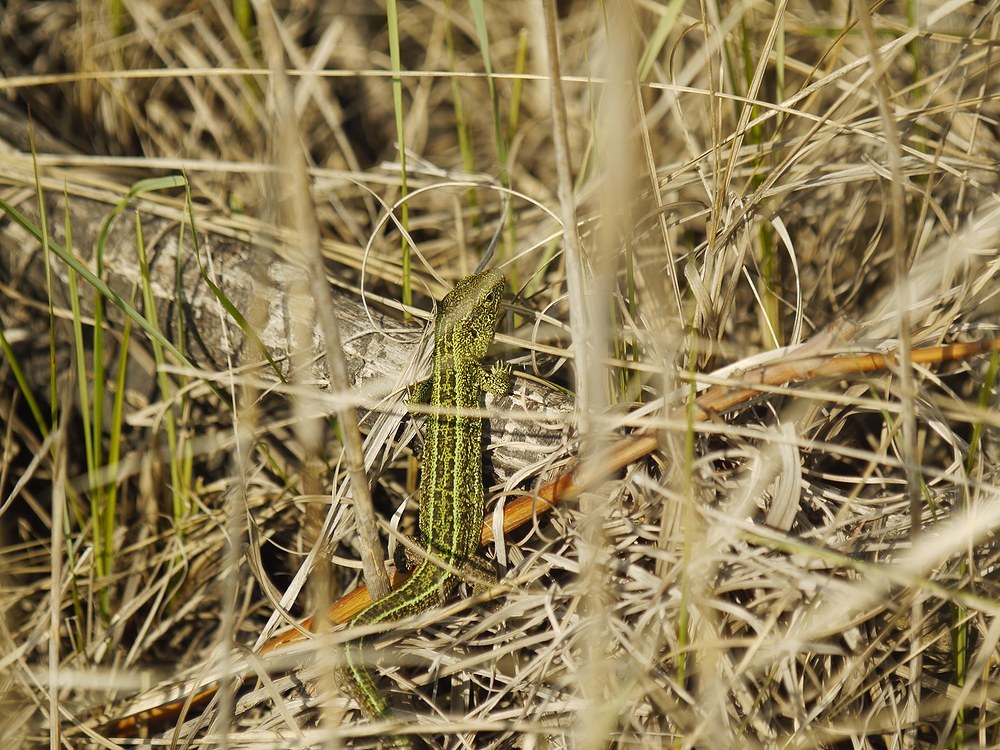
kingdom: Animalia
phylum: Chordata
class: Squamata
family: Lacertidae
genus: Lacerta
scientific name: Lacerta agilis
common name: Sand lizard
